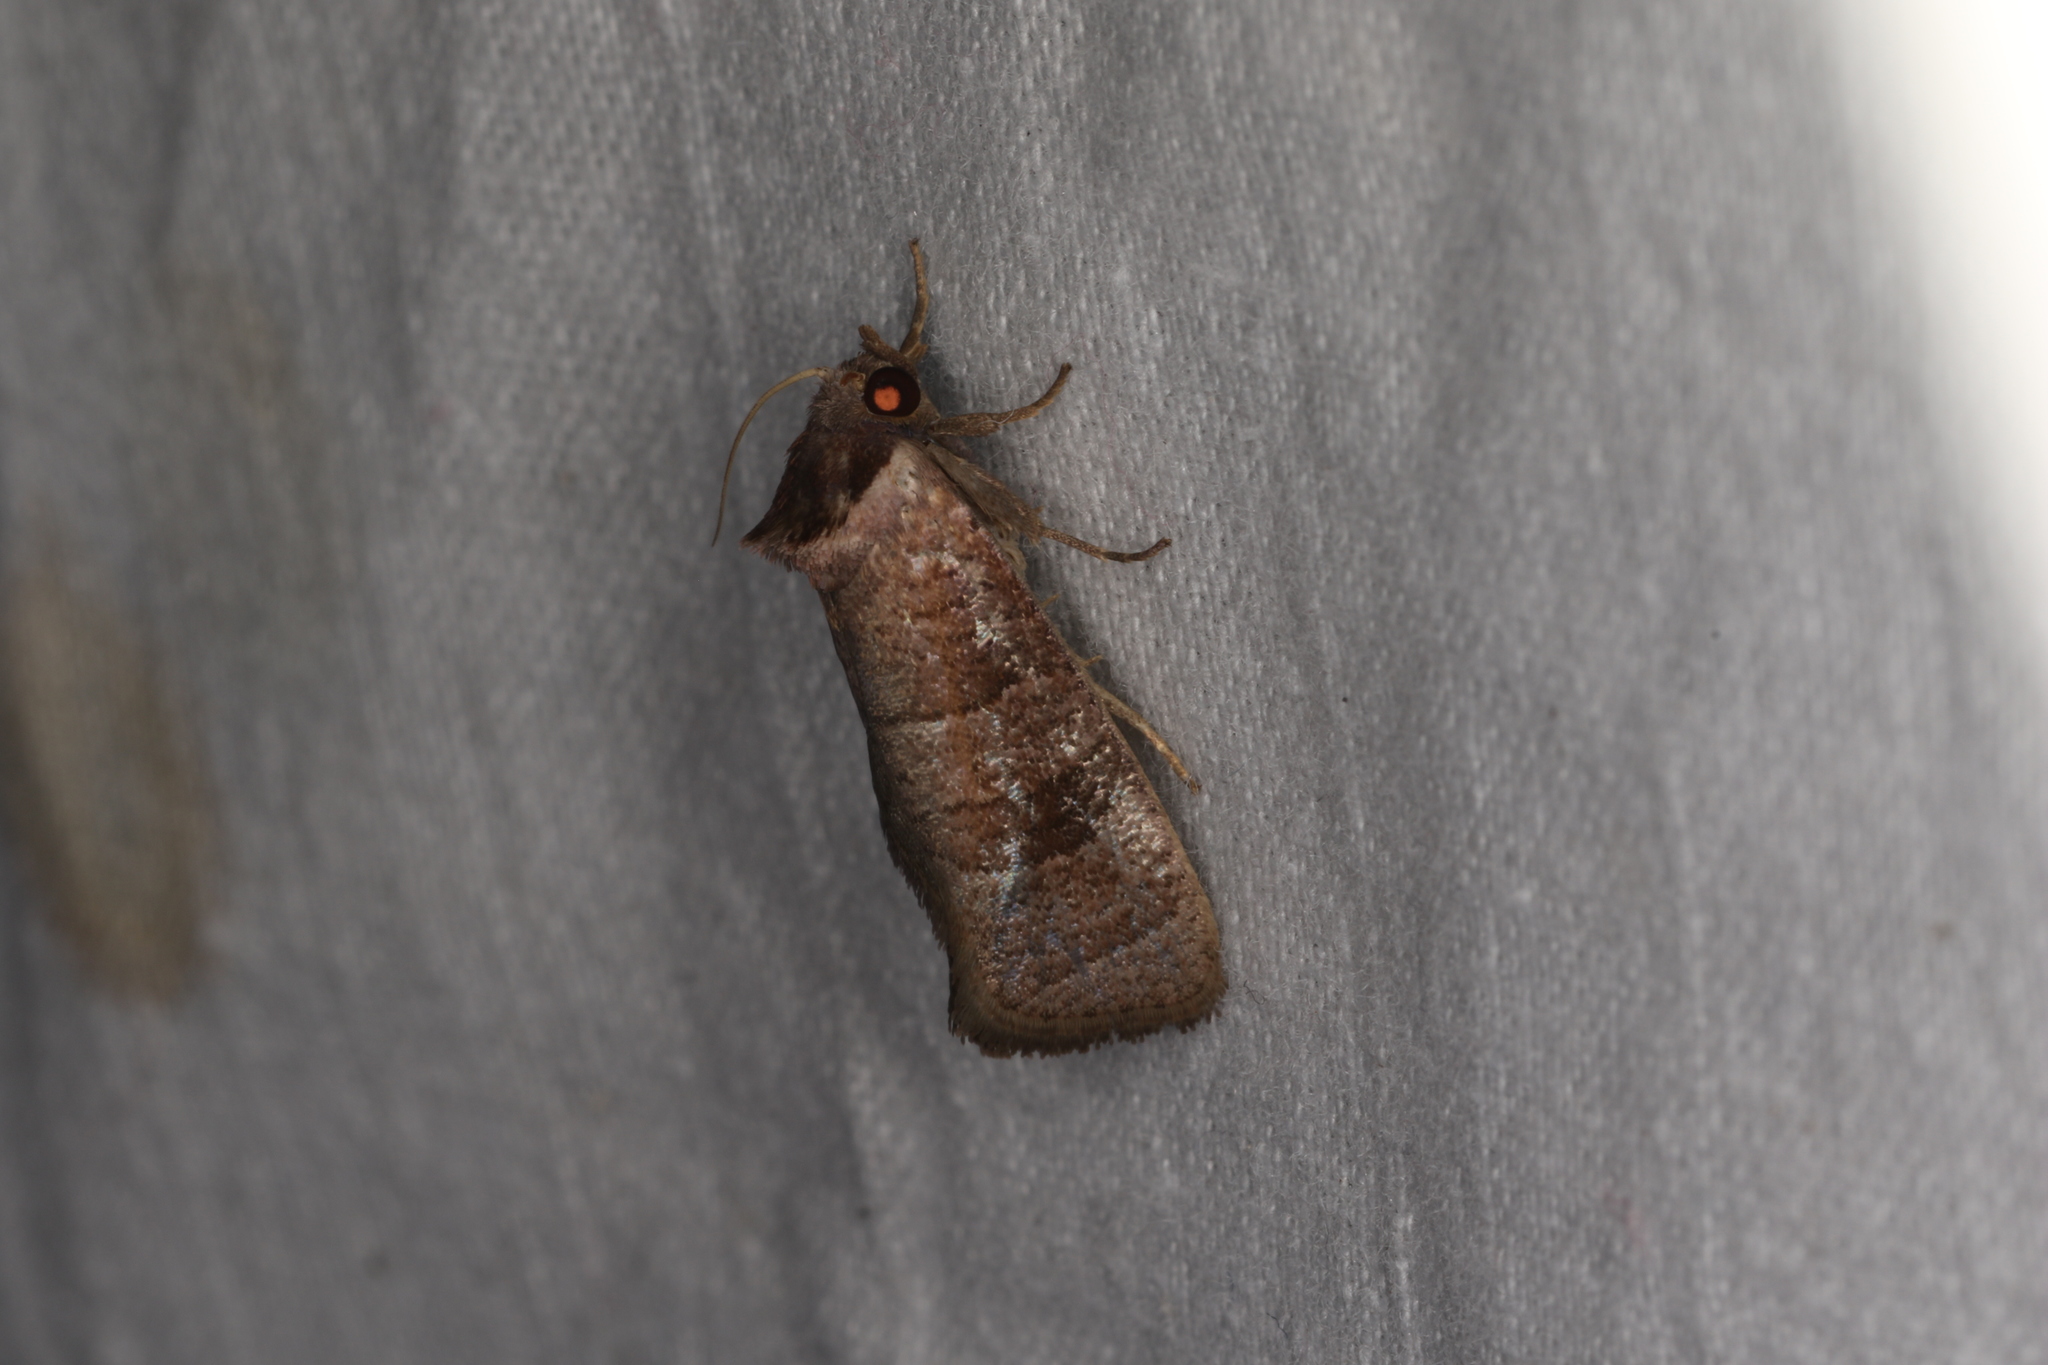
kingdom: Animalia
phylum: Arthropoda
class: Insecta
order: Lepidoptera
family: Cossidae
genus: Eusthenica
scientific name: Eusthenica treicleiota
